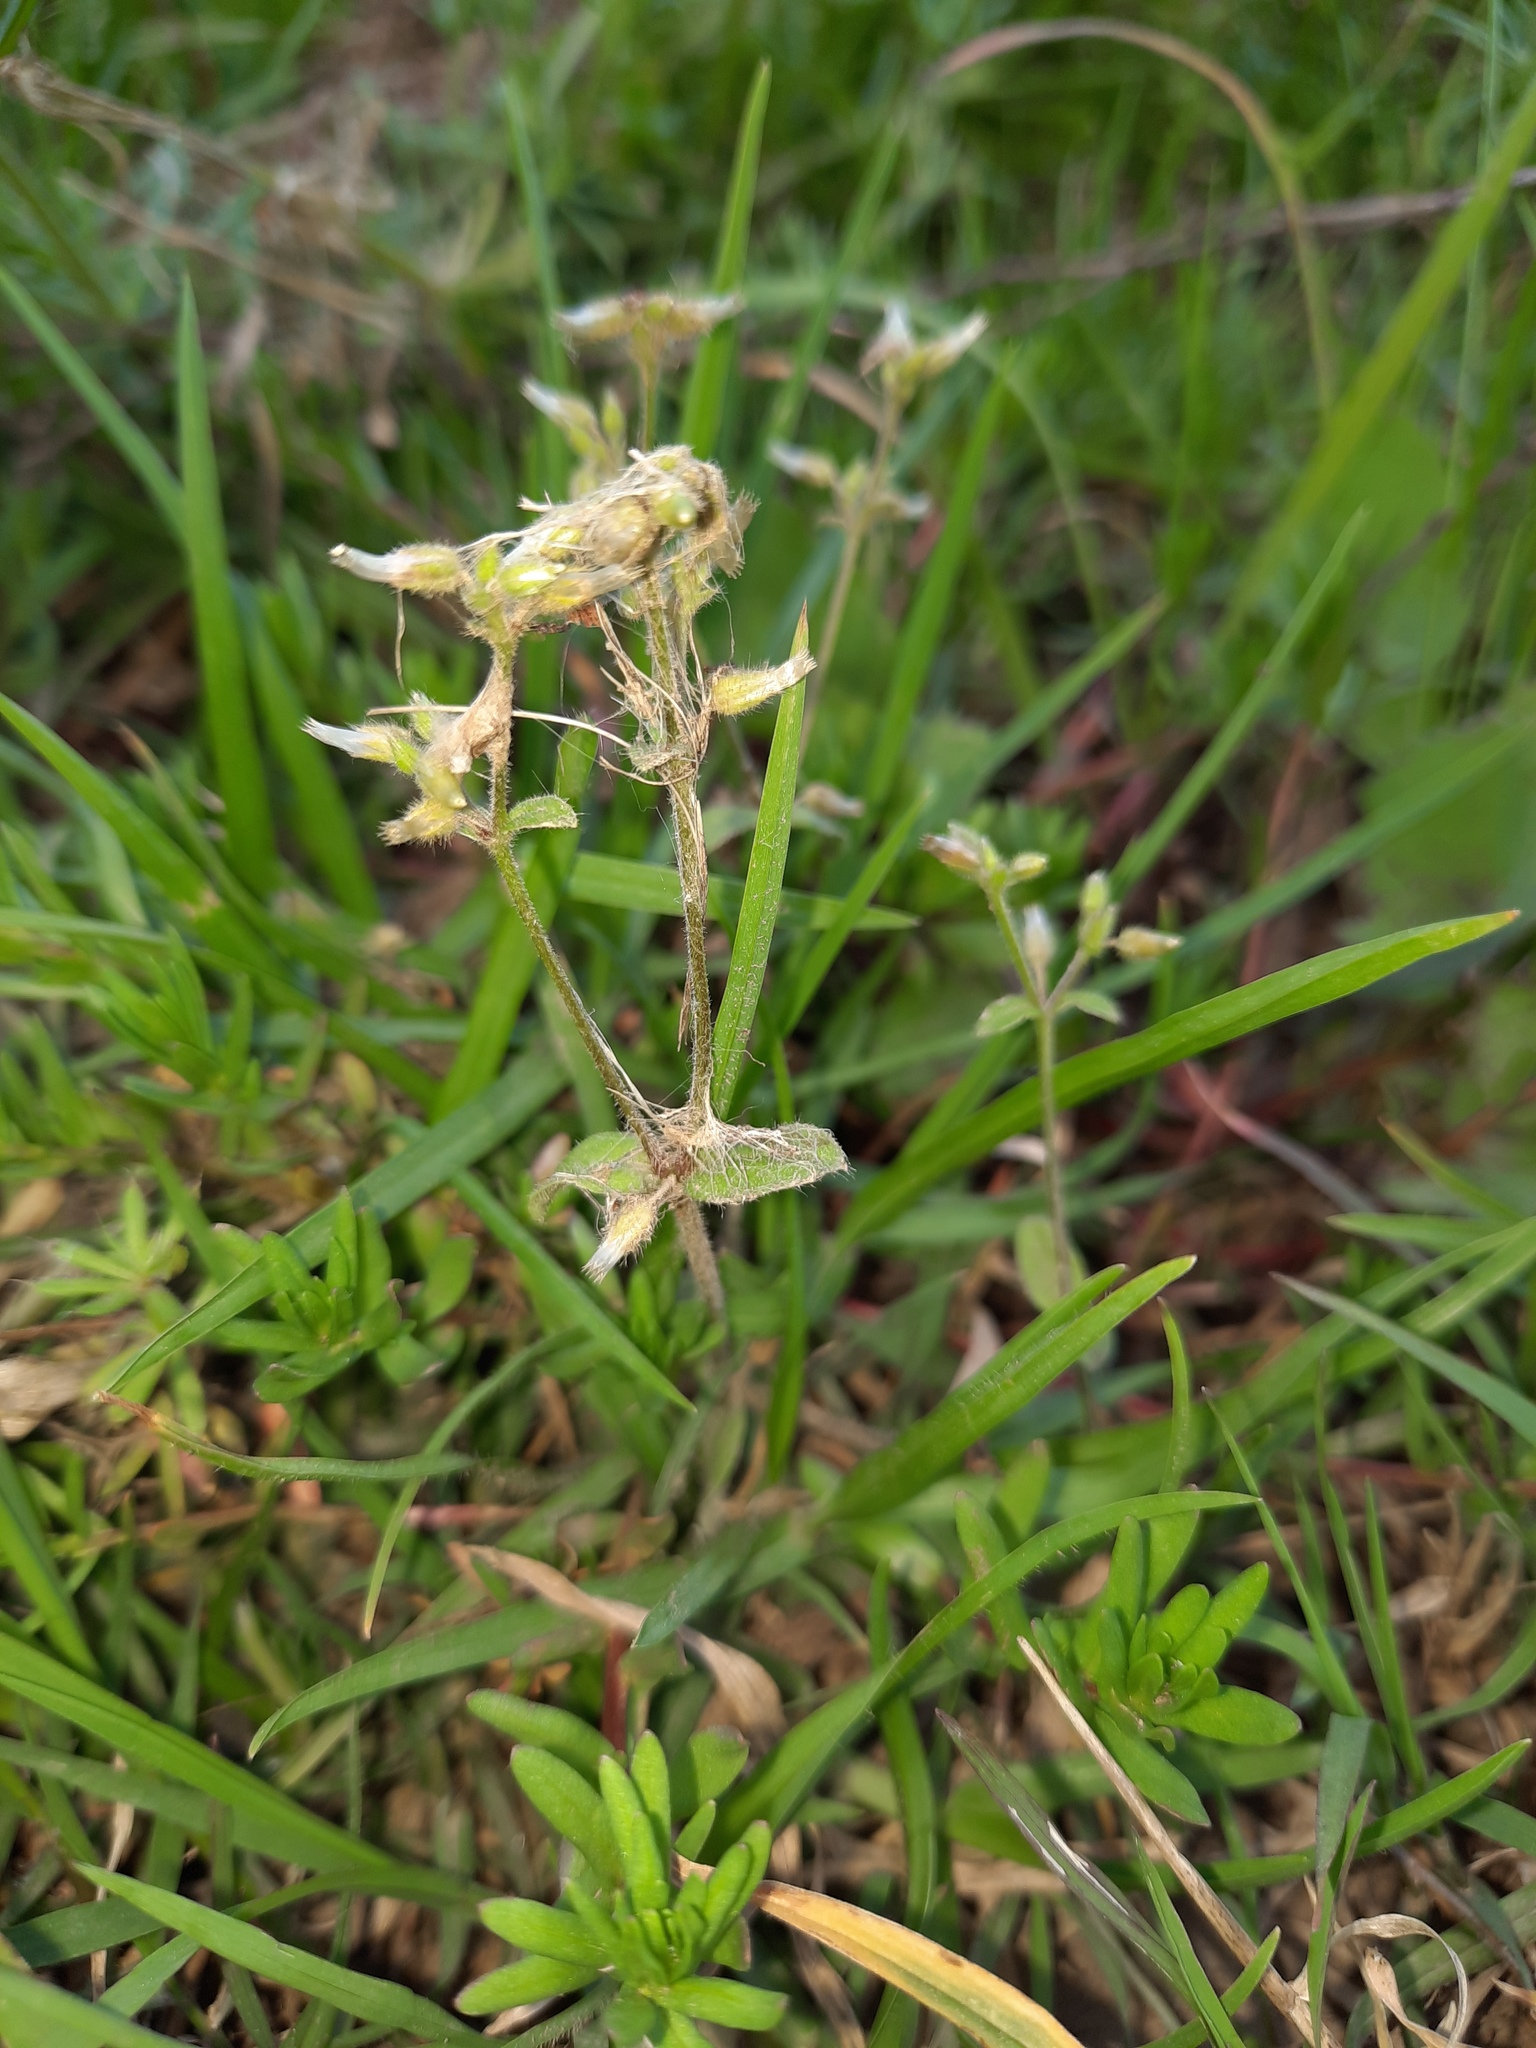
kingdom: Plantae
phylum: Tracheophyta
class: Magnoliopsida
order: Caryophyllales
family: Caryophyllaceae
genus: Cerastium
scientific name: Cerastium glomeratum
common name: Sticky chickweed
